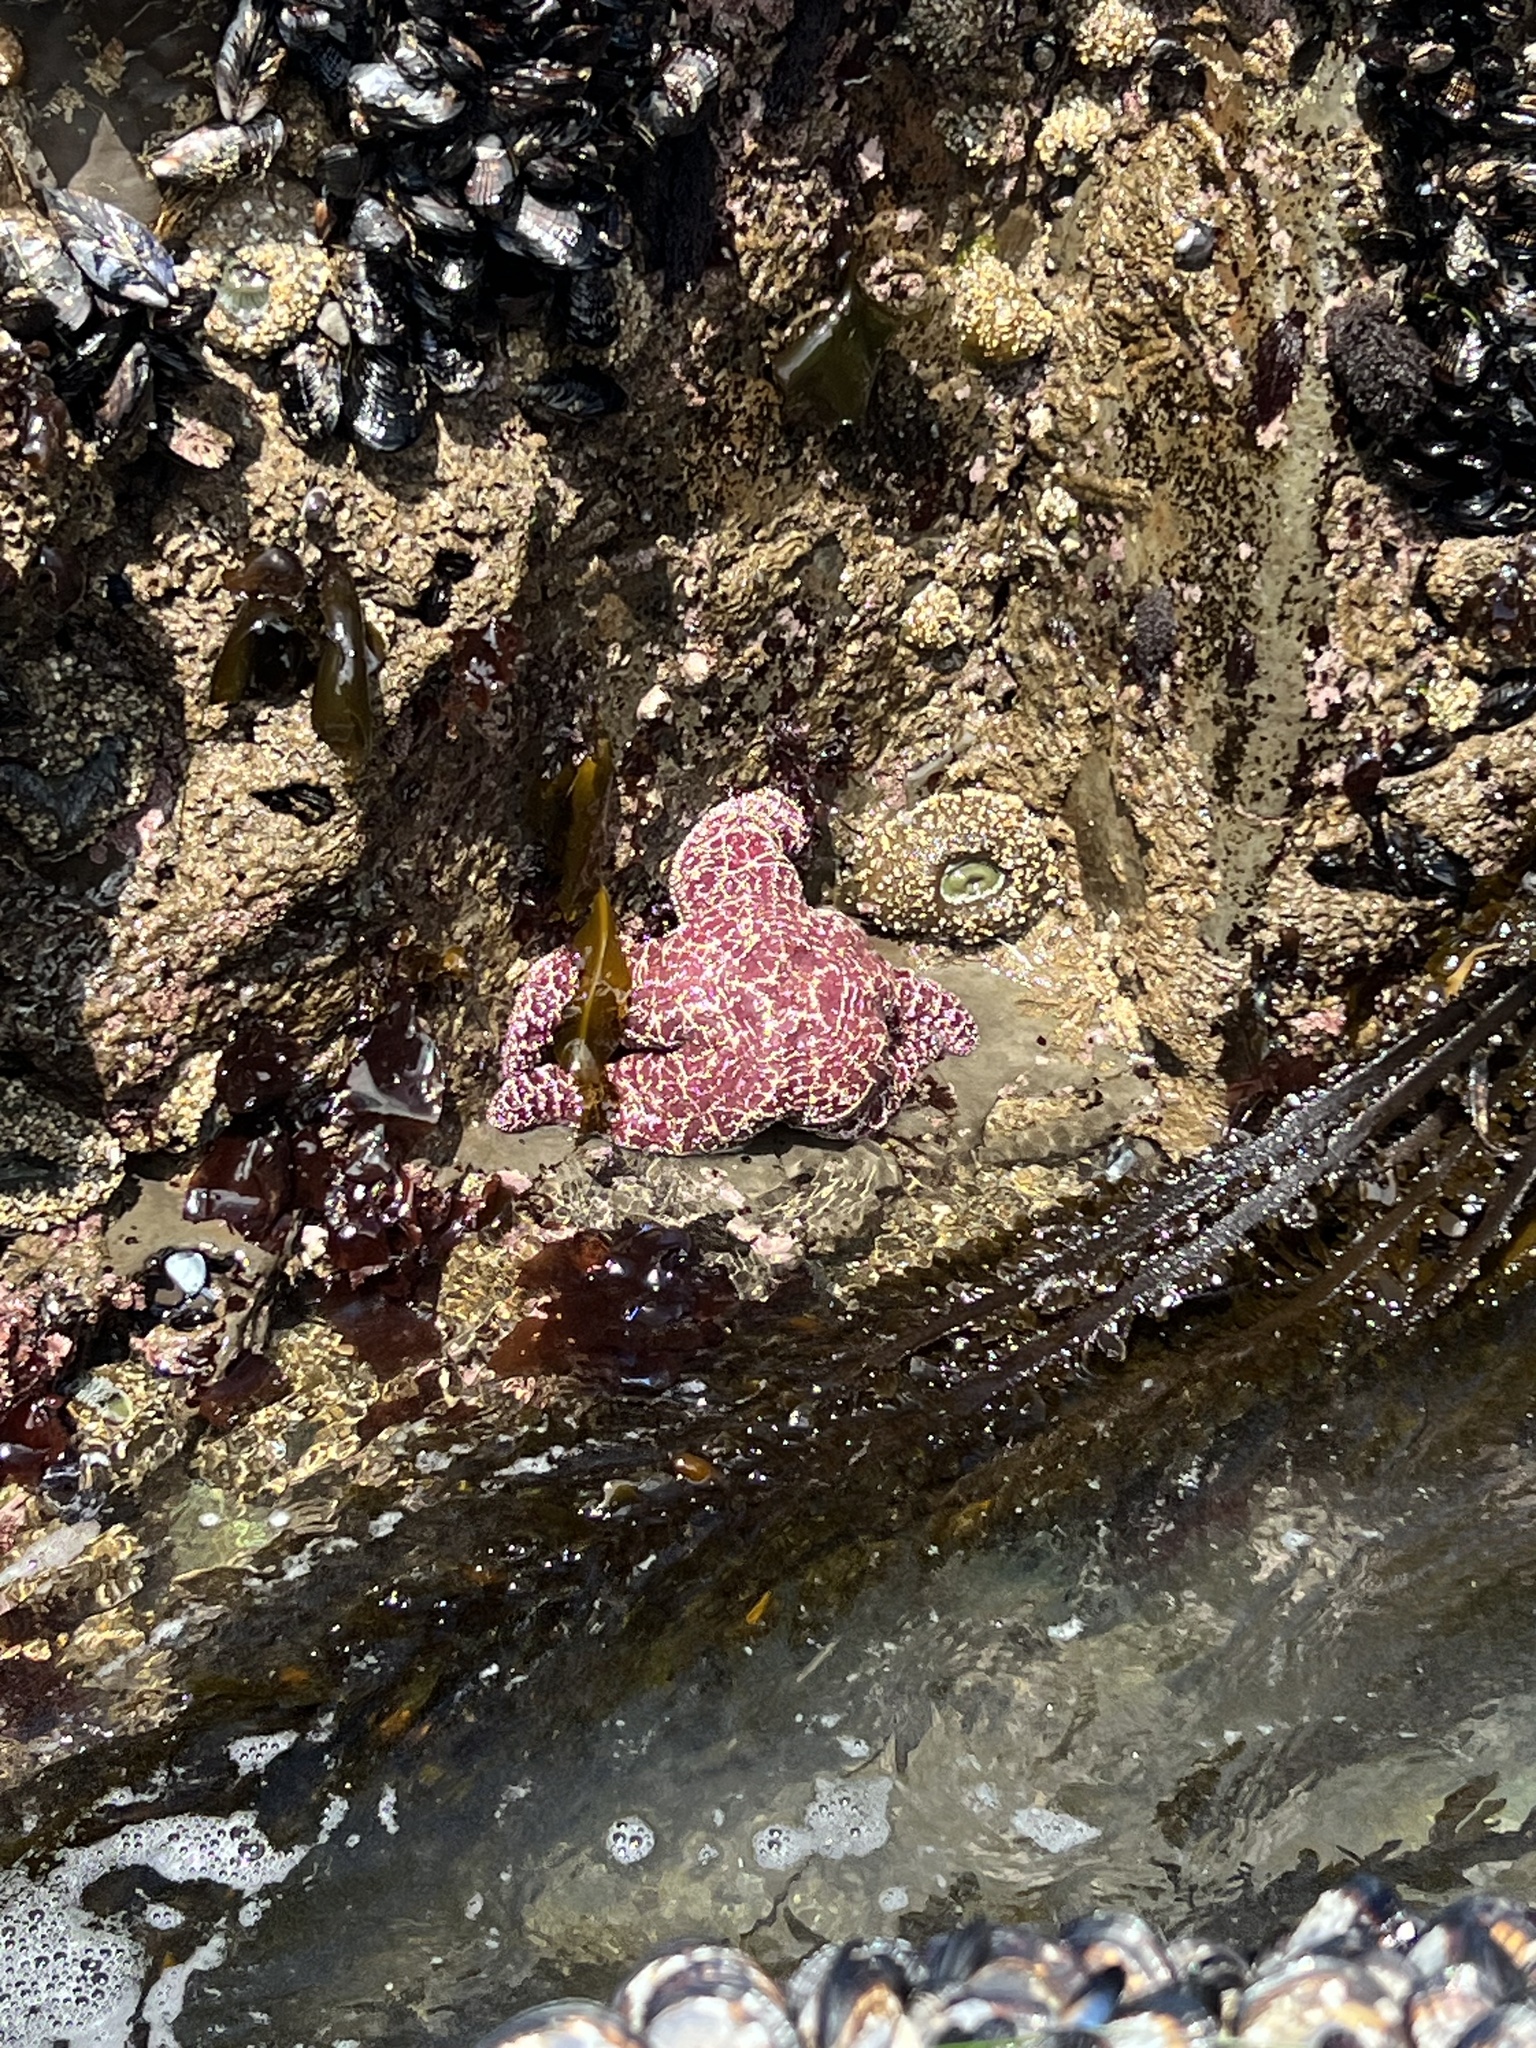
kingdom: Animalia
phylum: Echinodermata
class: Asteroidea
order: Forcipulatida
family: Asteriidae
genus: Pisaster
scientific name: Pisaster ochraceus
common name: Ochre stars
